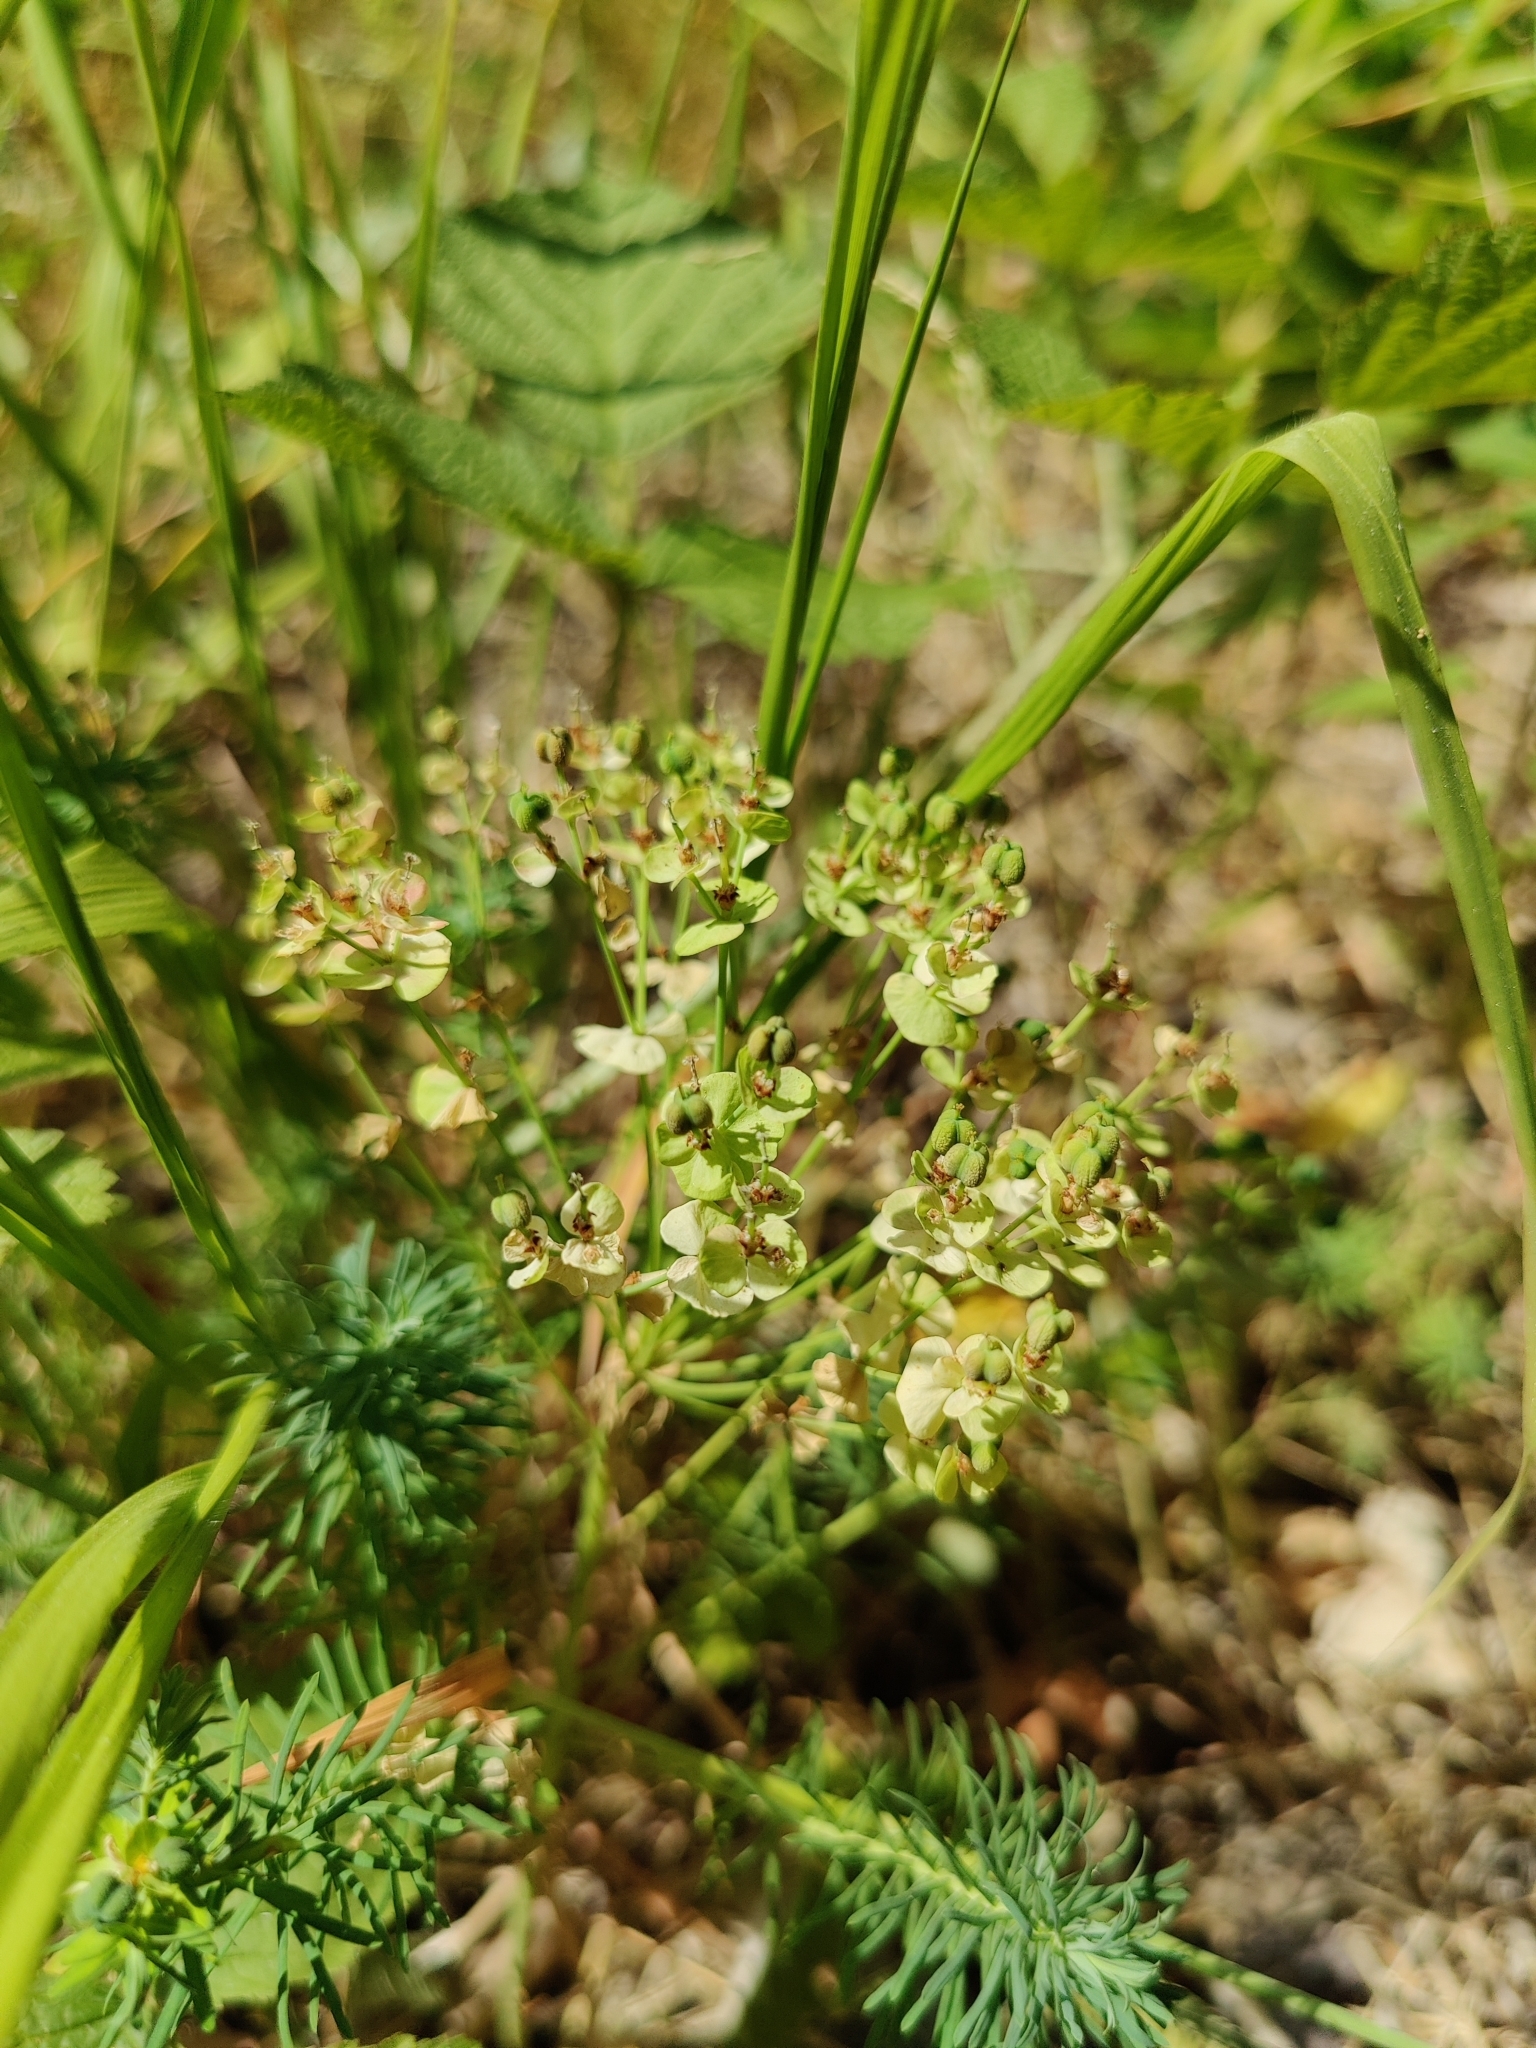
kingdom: Plantae
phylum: Tracheophyta
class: Magnoliopsida
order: Malpighiales
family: Euphorbiaceae
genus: Euphorbia
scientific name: Euphorbia cyparissias
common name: Cypress spurge
